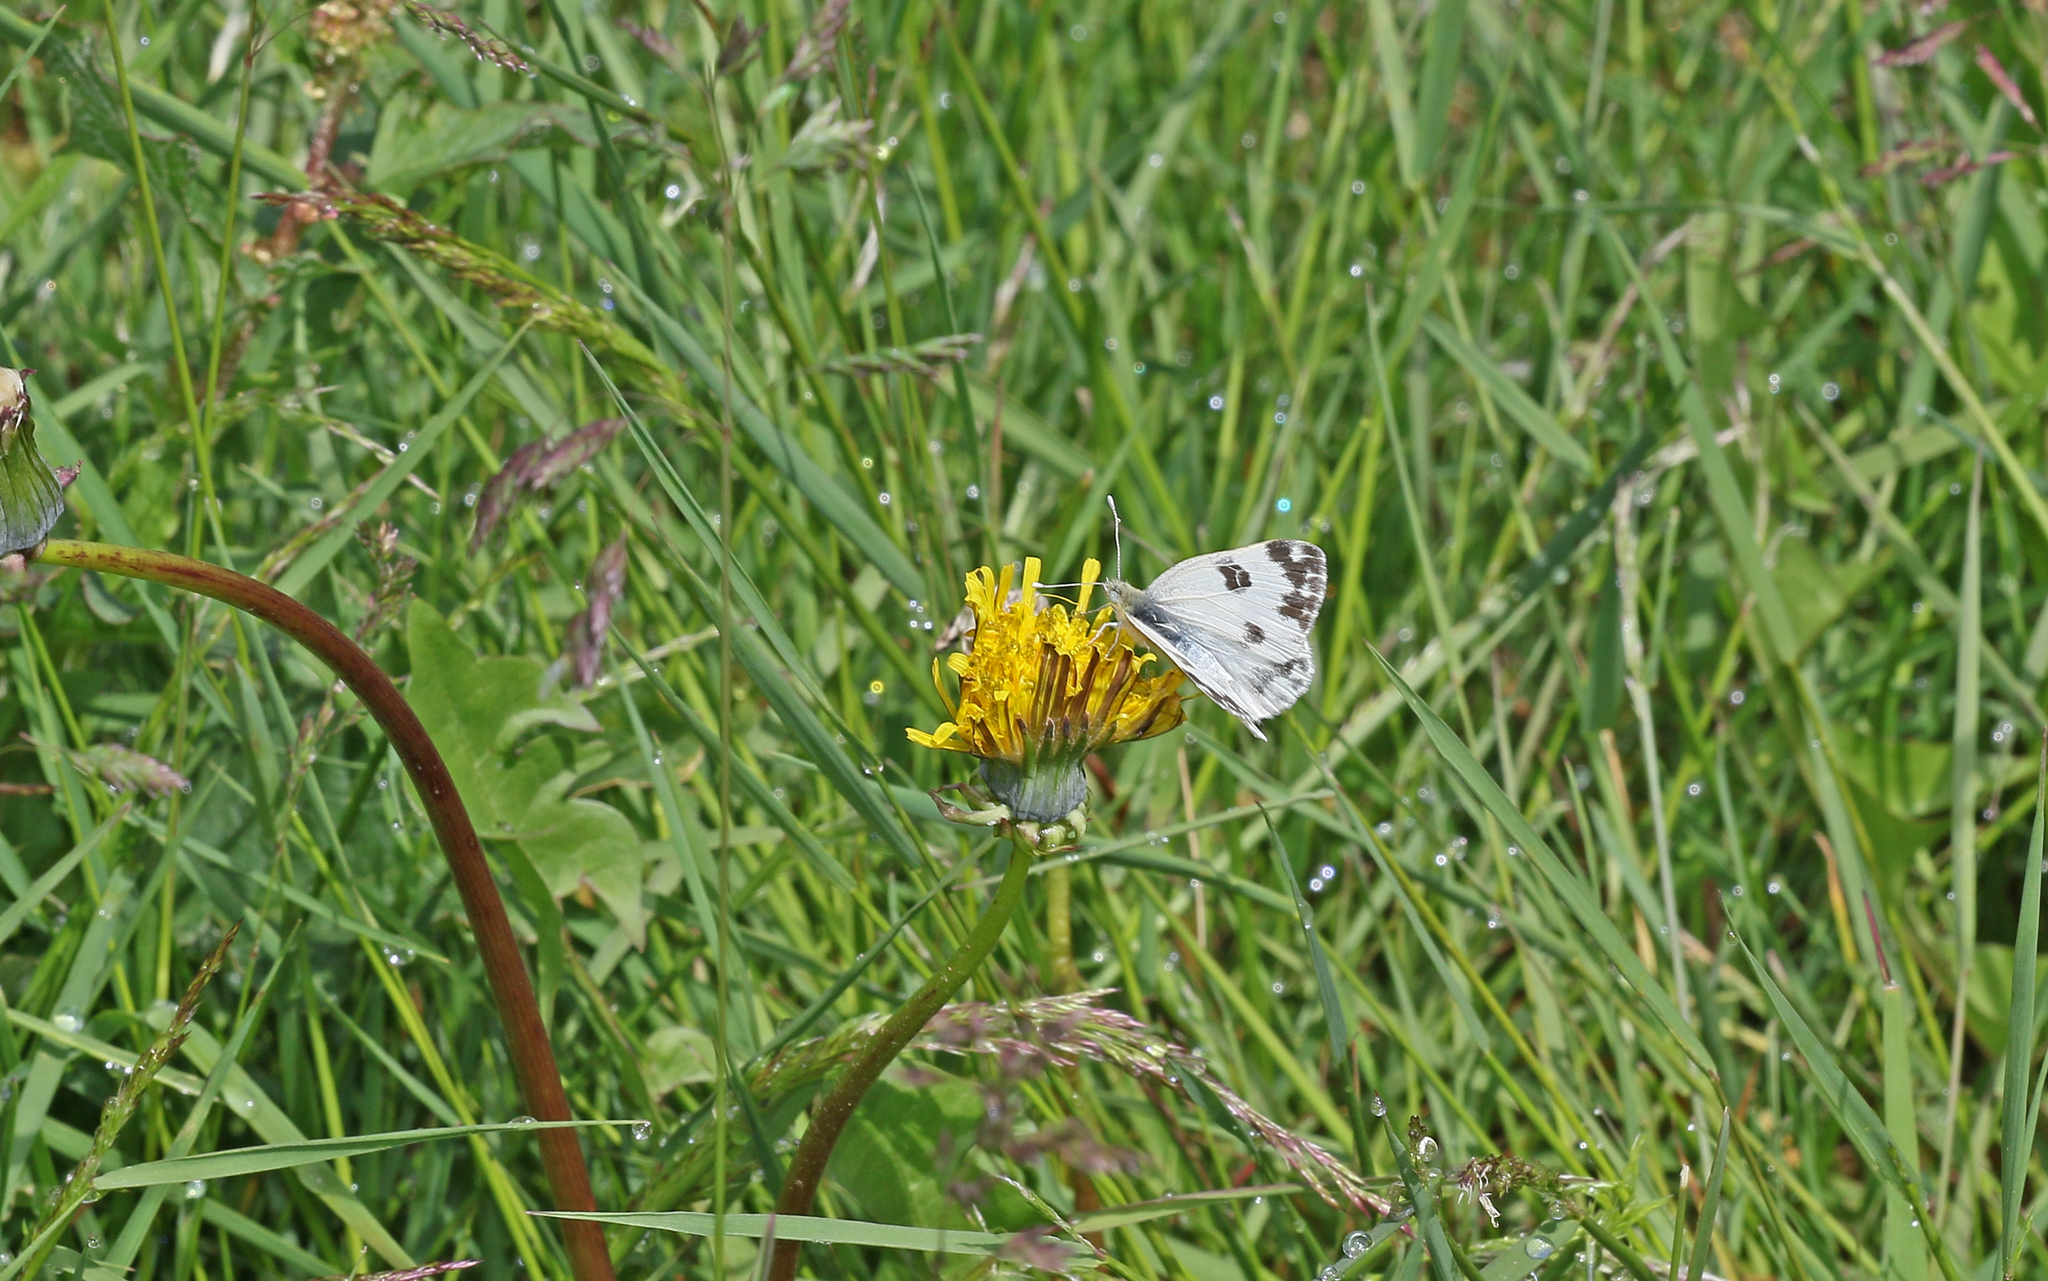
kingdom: Animalia
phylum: Arthropoda
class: Insecta
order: Lepidoptera
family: Pieridae
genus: Pontia
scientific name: Pontia edusa
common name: Eastern bath white
